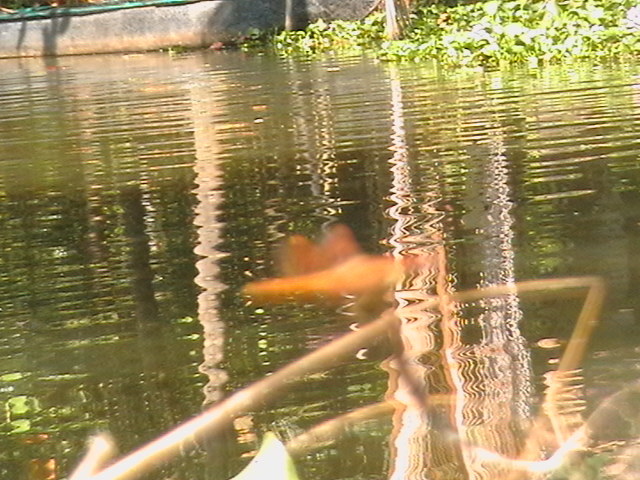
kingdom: Animalia
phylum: Arthropoda
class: Insecta
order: Odonata
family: Libellulidae
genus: Brachythemis
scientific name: Brachythemis contaminata
